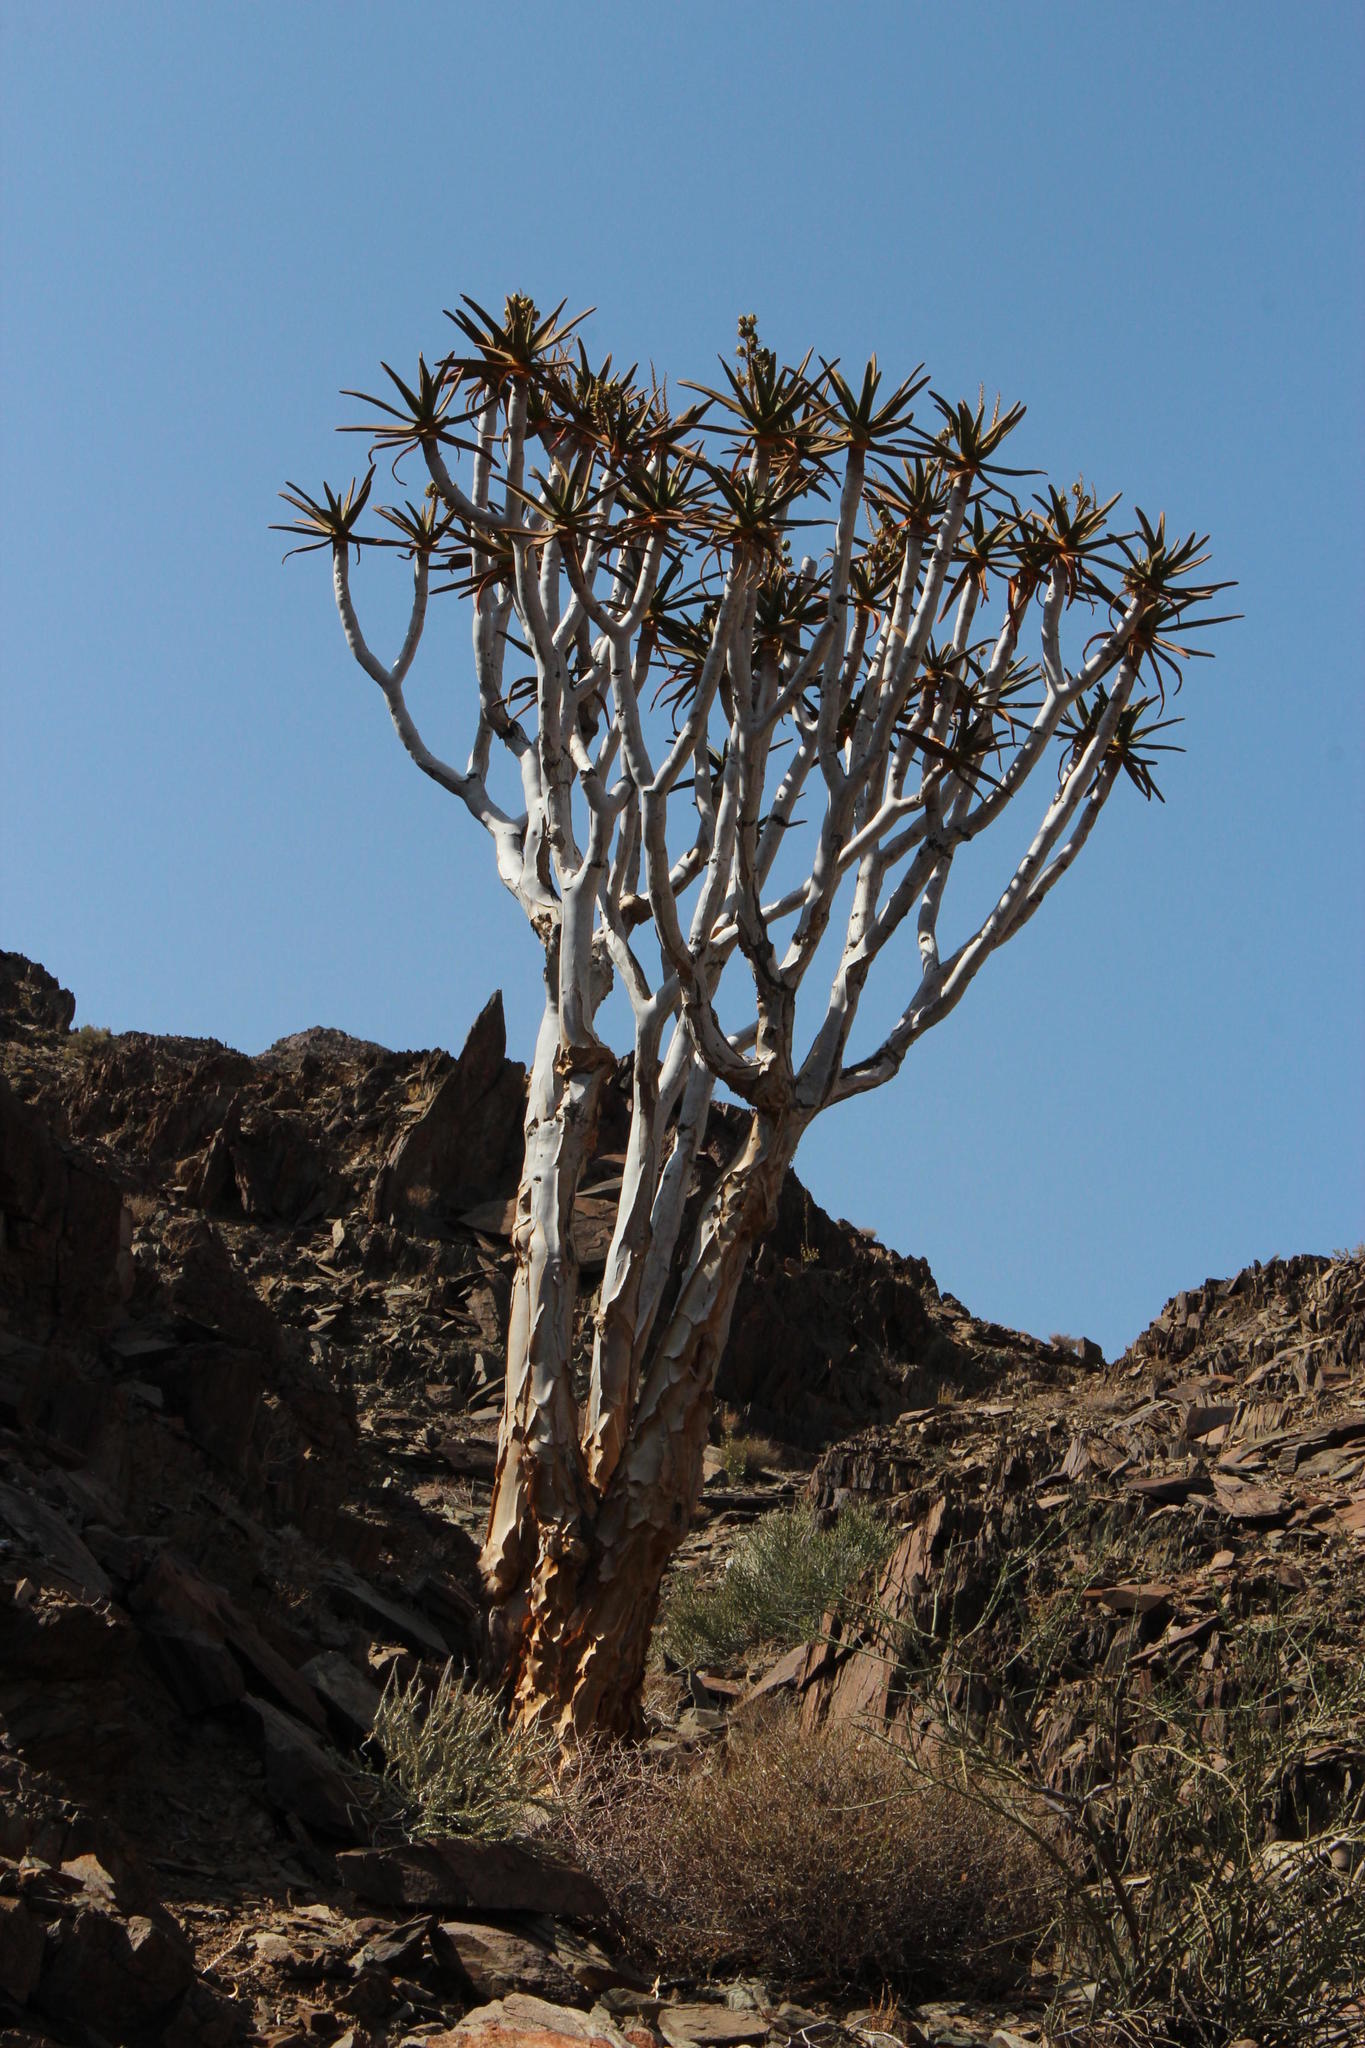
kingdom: Plantae
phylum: Tracheophyta
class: Liliopsida
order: Asparagales
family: Asphodelaceae
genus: Aloidendron
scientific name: Aloidendron dichotomum
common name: Quiver tree
